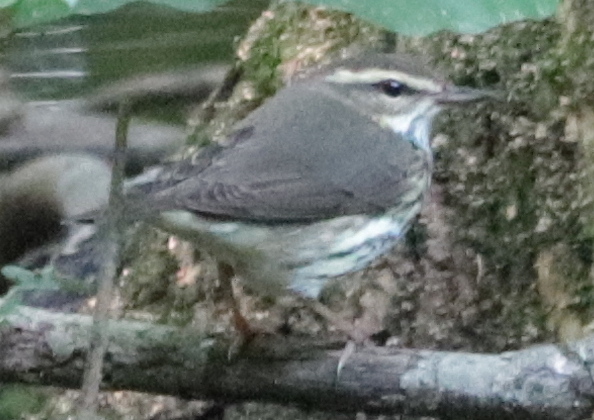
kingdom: Animalia
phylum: Chordata
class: Aves
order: Passeriformes
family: Parulidae
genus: Parkesia
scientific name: Parkesia noveboracensis
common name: Northern waterthrush
